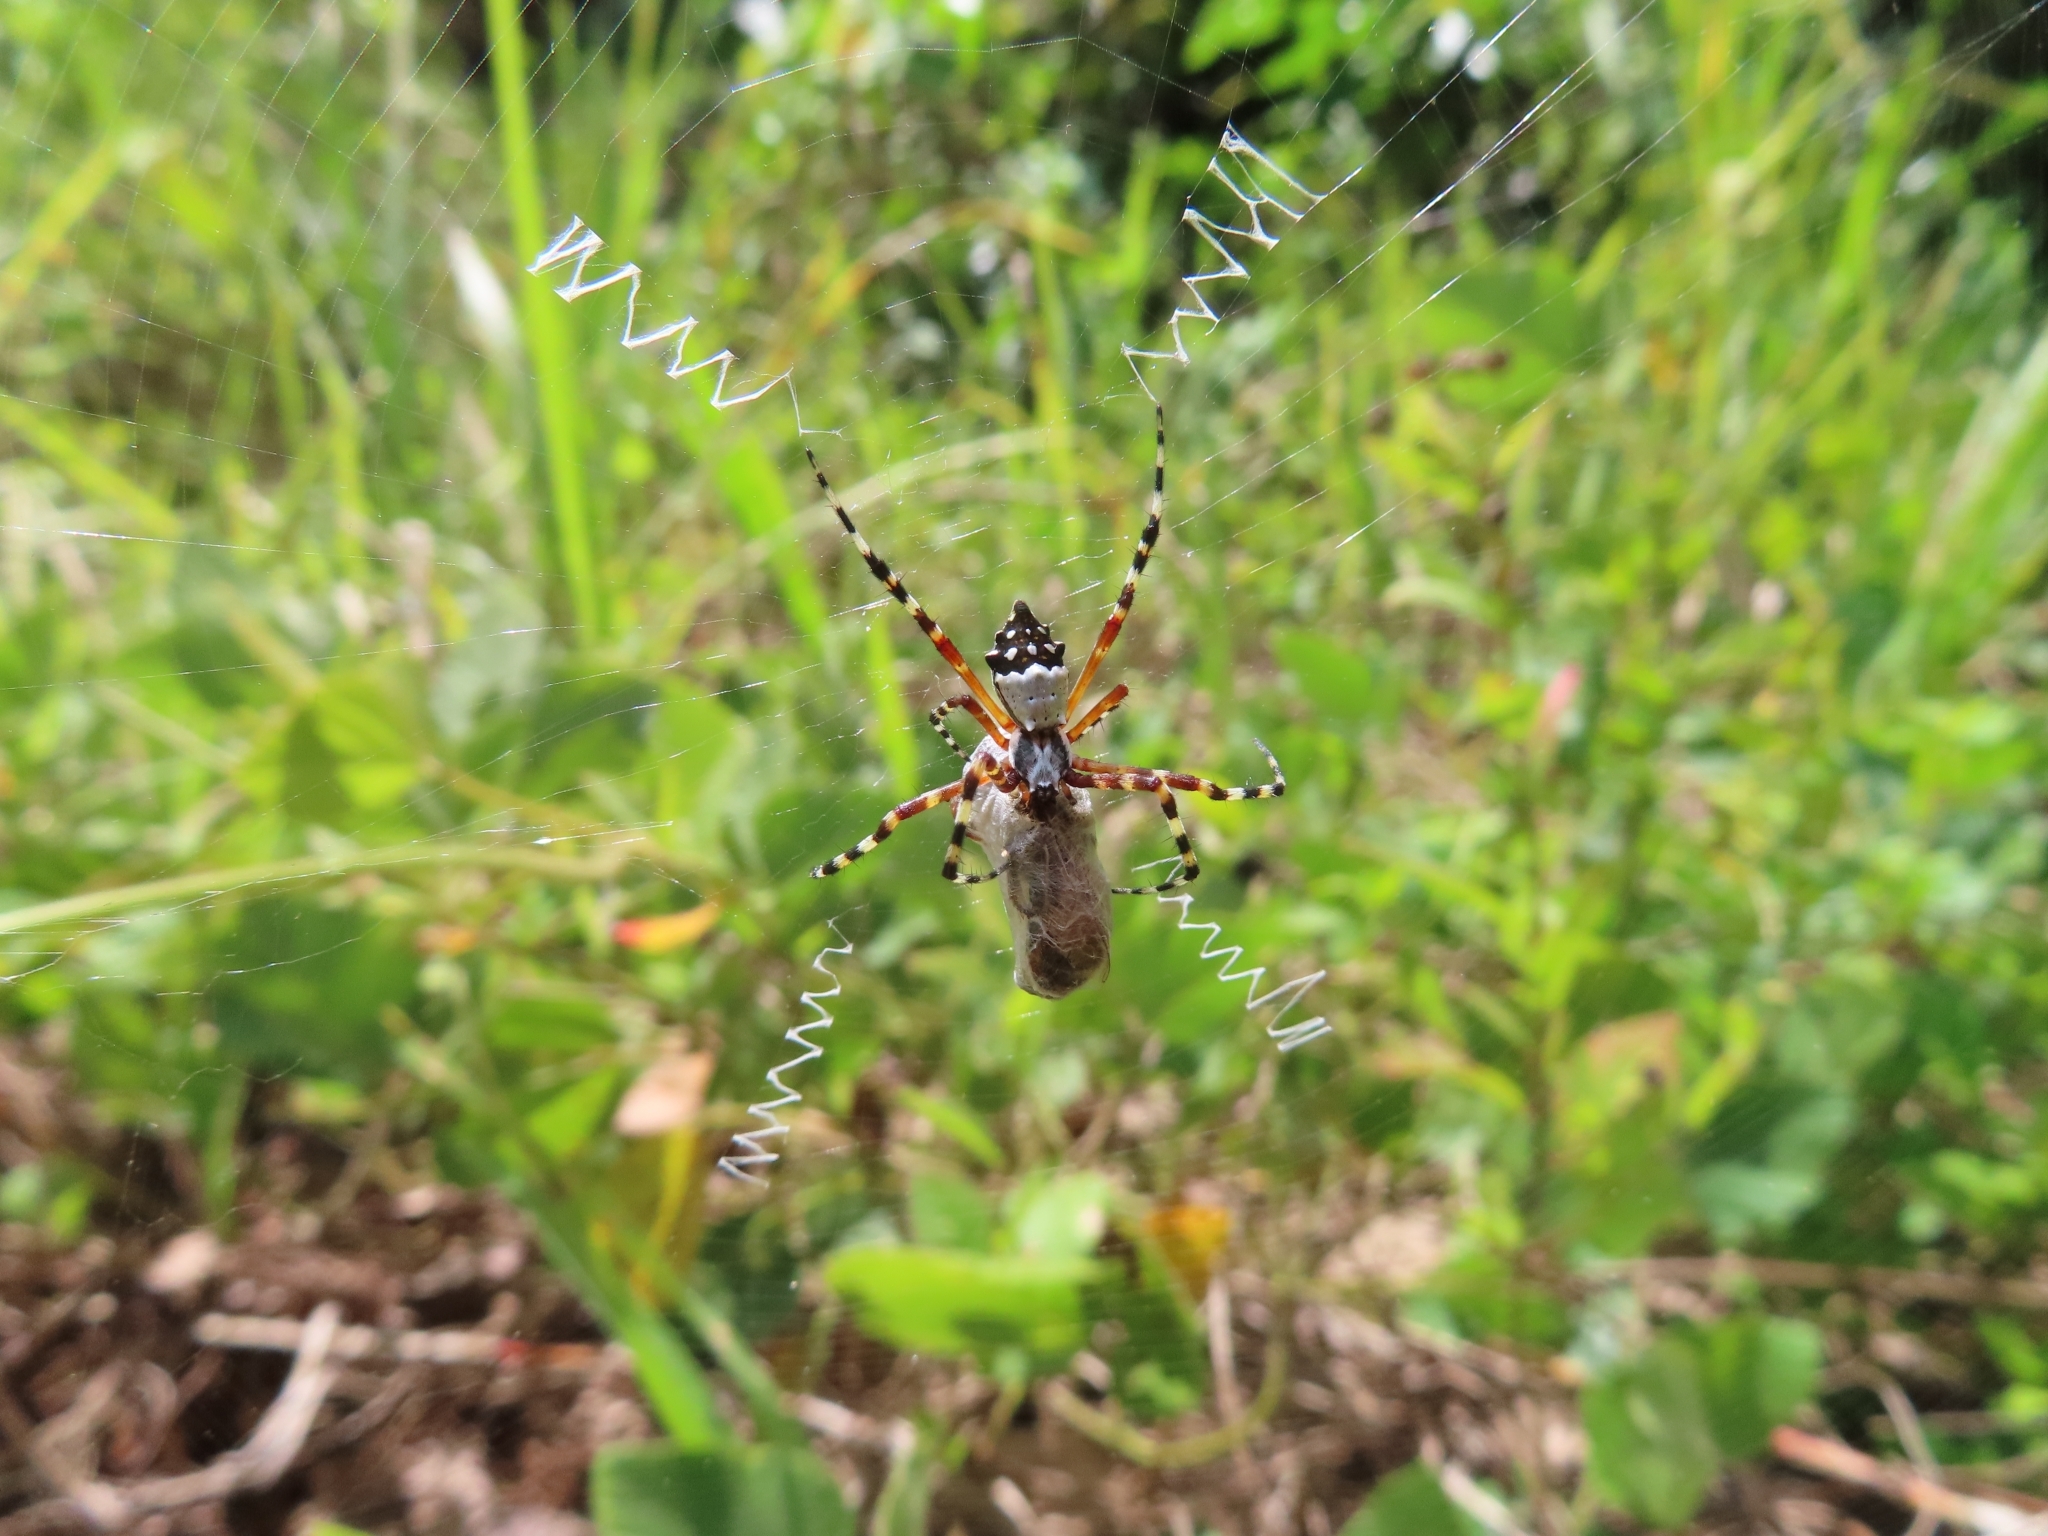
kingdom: Animalia
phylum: Arthropoda
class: Arachnida
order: Araneae
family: Araneidae
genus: Argiope
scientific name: Argiope argentata
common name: Orb weavers
